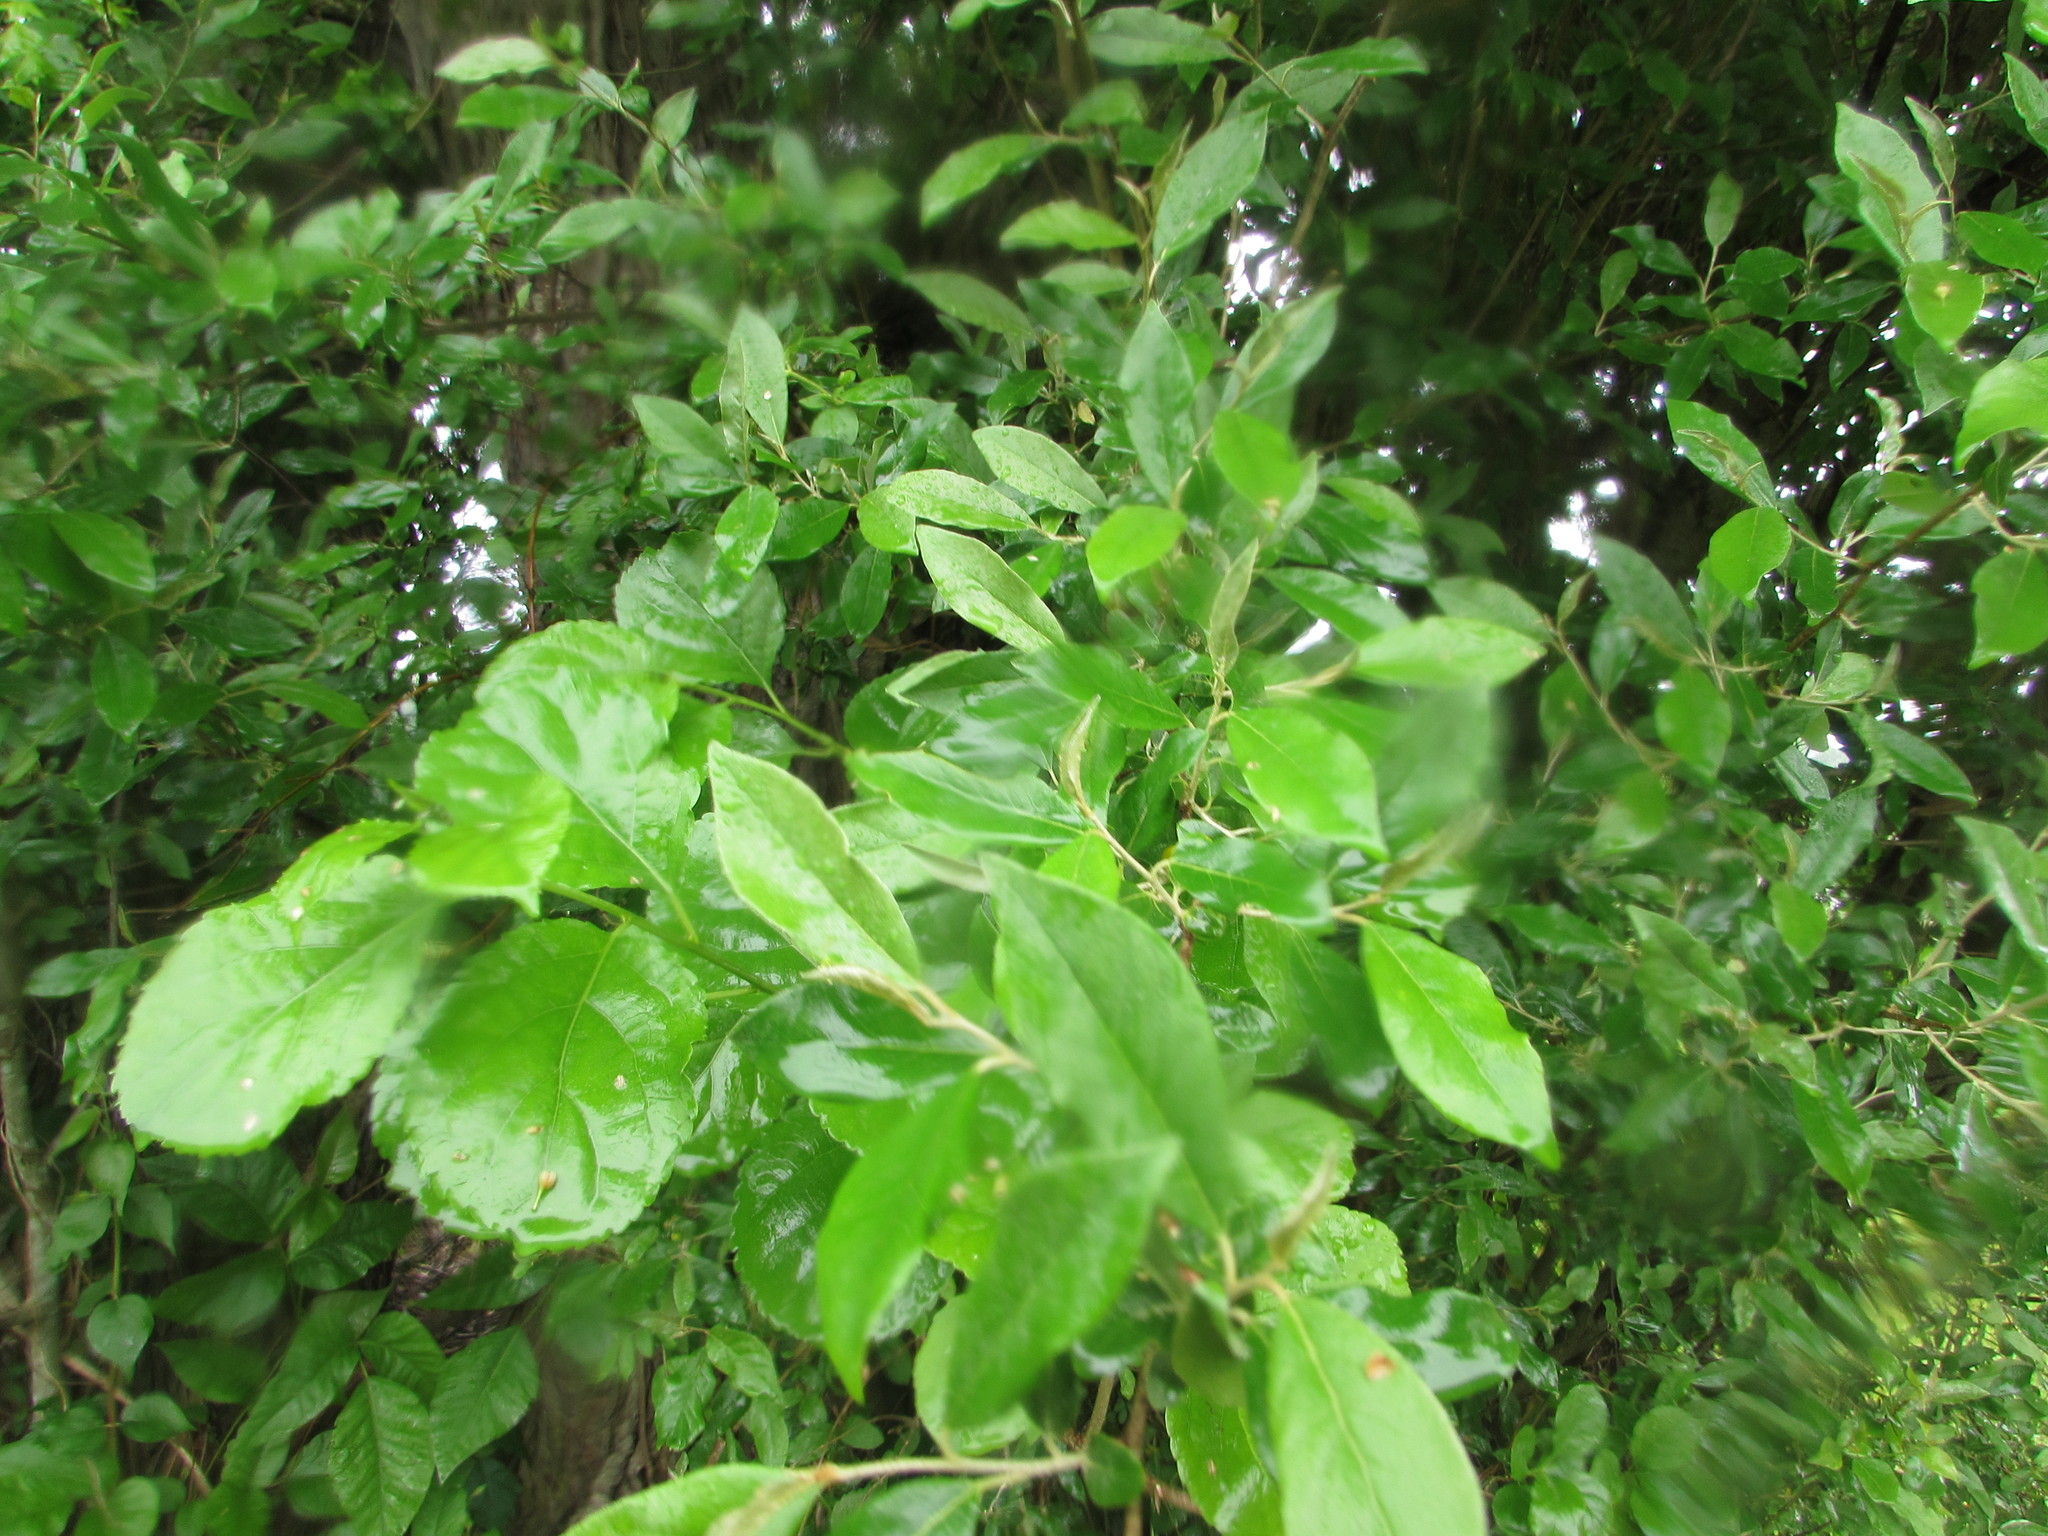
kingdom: Plantae
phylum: Tracheophyta
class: Magnoliopsida
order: Rosales
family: Elaeagnaceae
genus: Elaeagnus
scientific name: Elaeagnus umbellata
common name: Autumn olive
